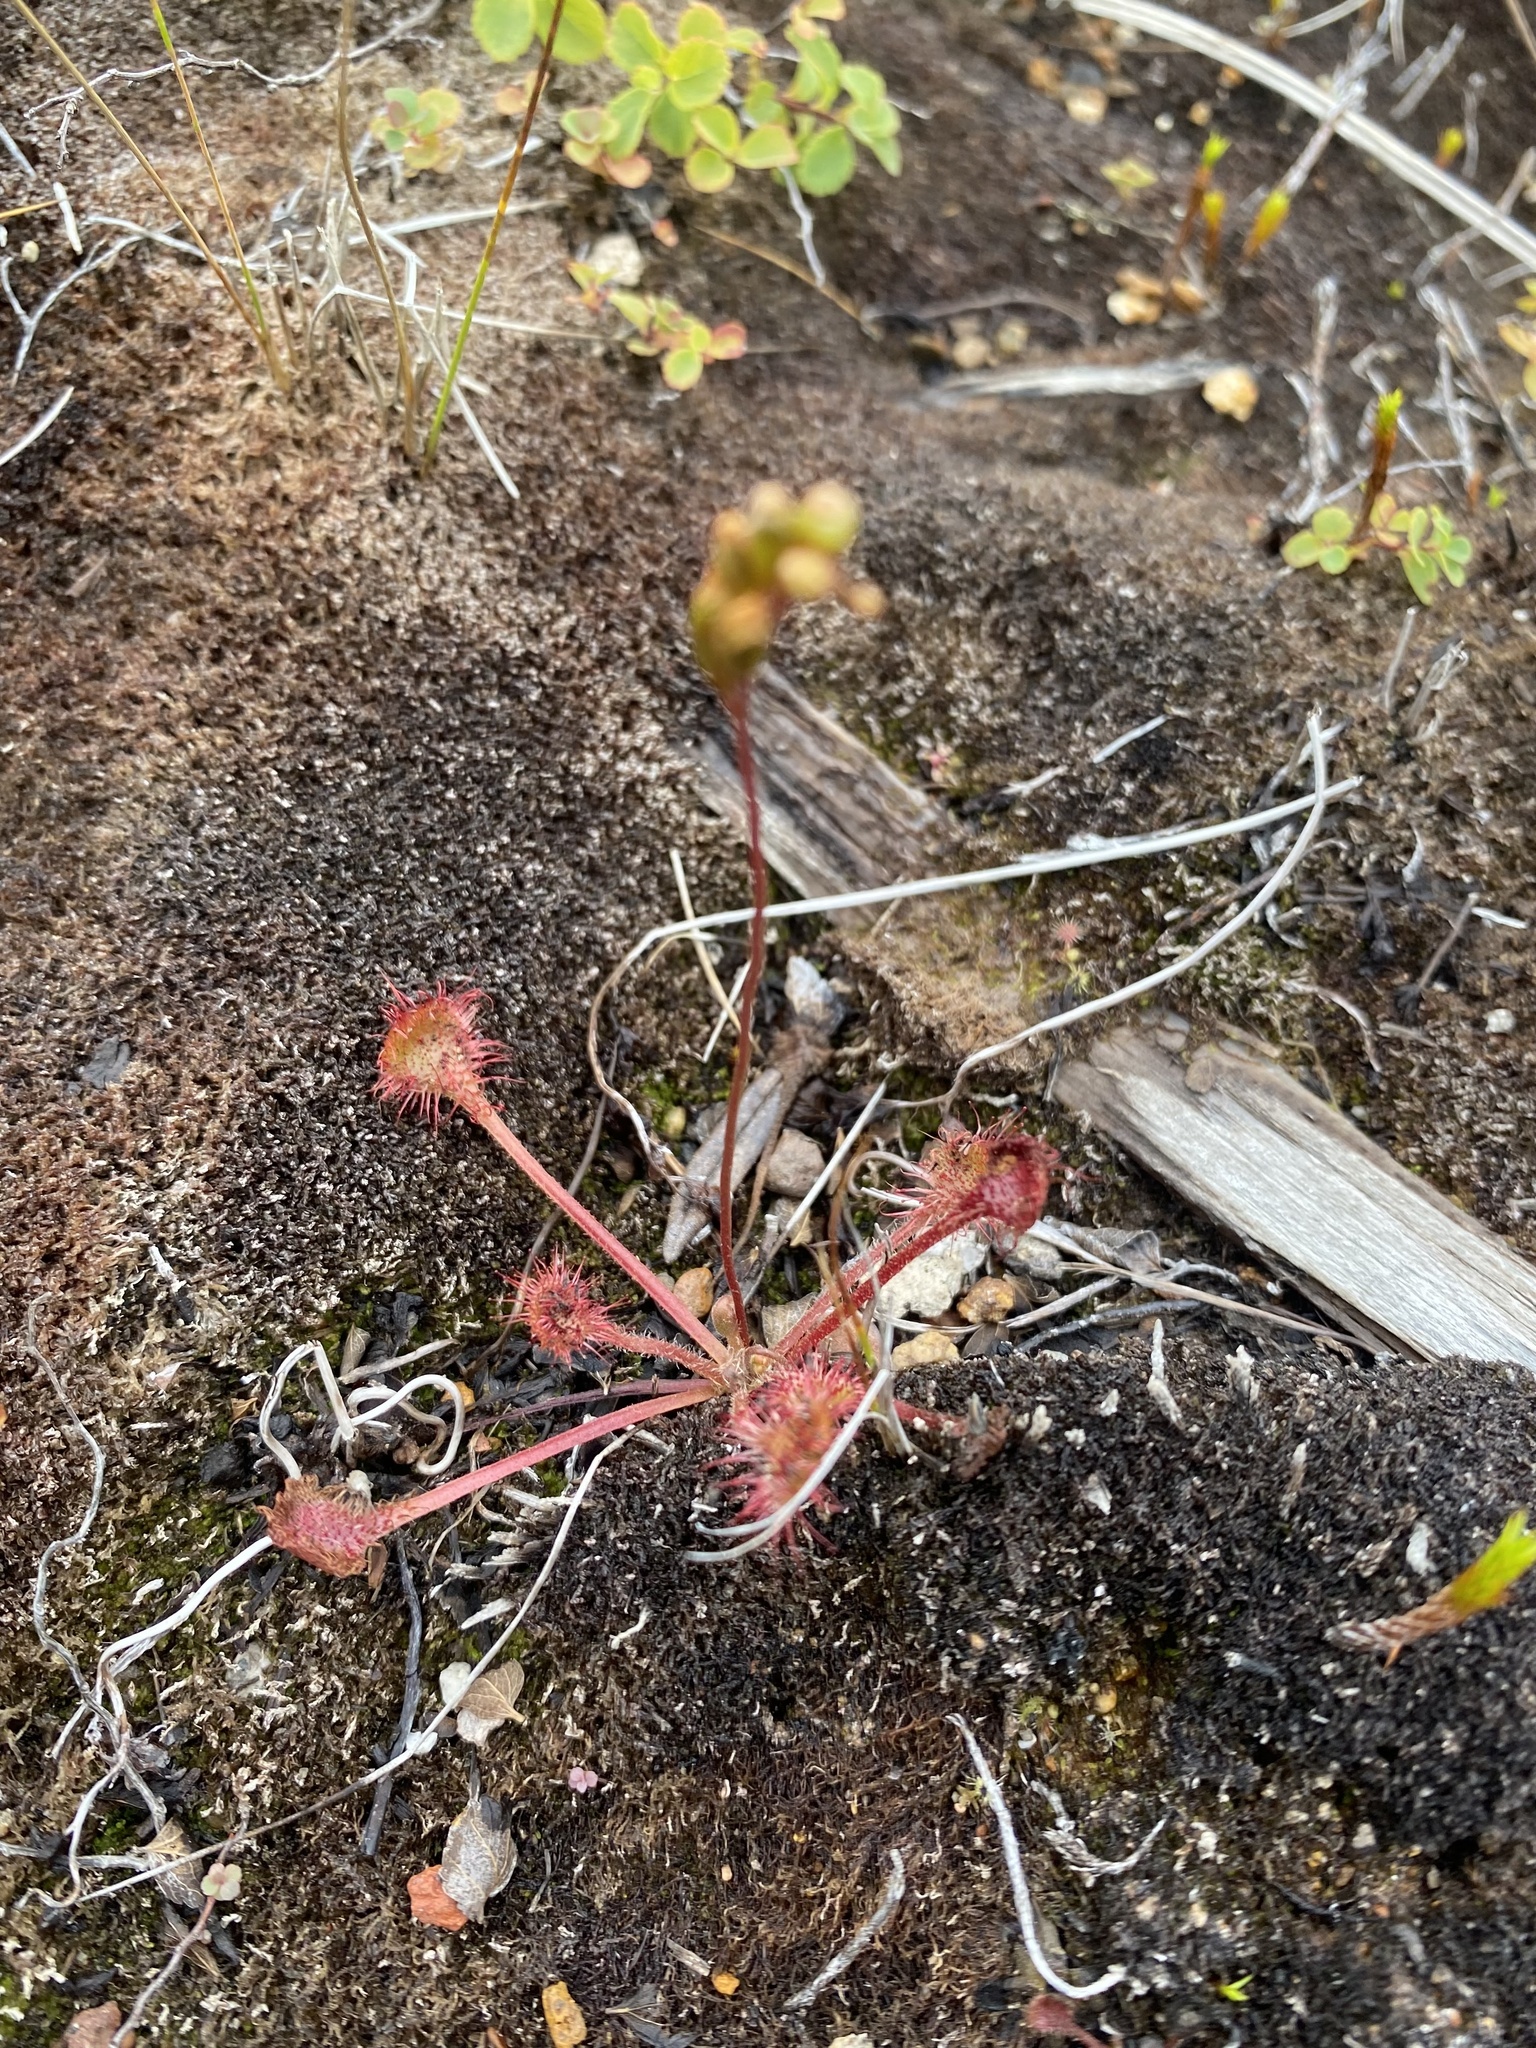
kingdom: Plantae
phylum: Tracheophyta
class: Magnoliopsida
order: Caryophyllales
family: Droseraceae
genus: Drosera
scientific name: Drosera rotundifolia
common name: Round-leaved sundew
